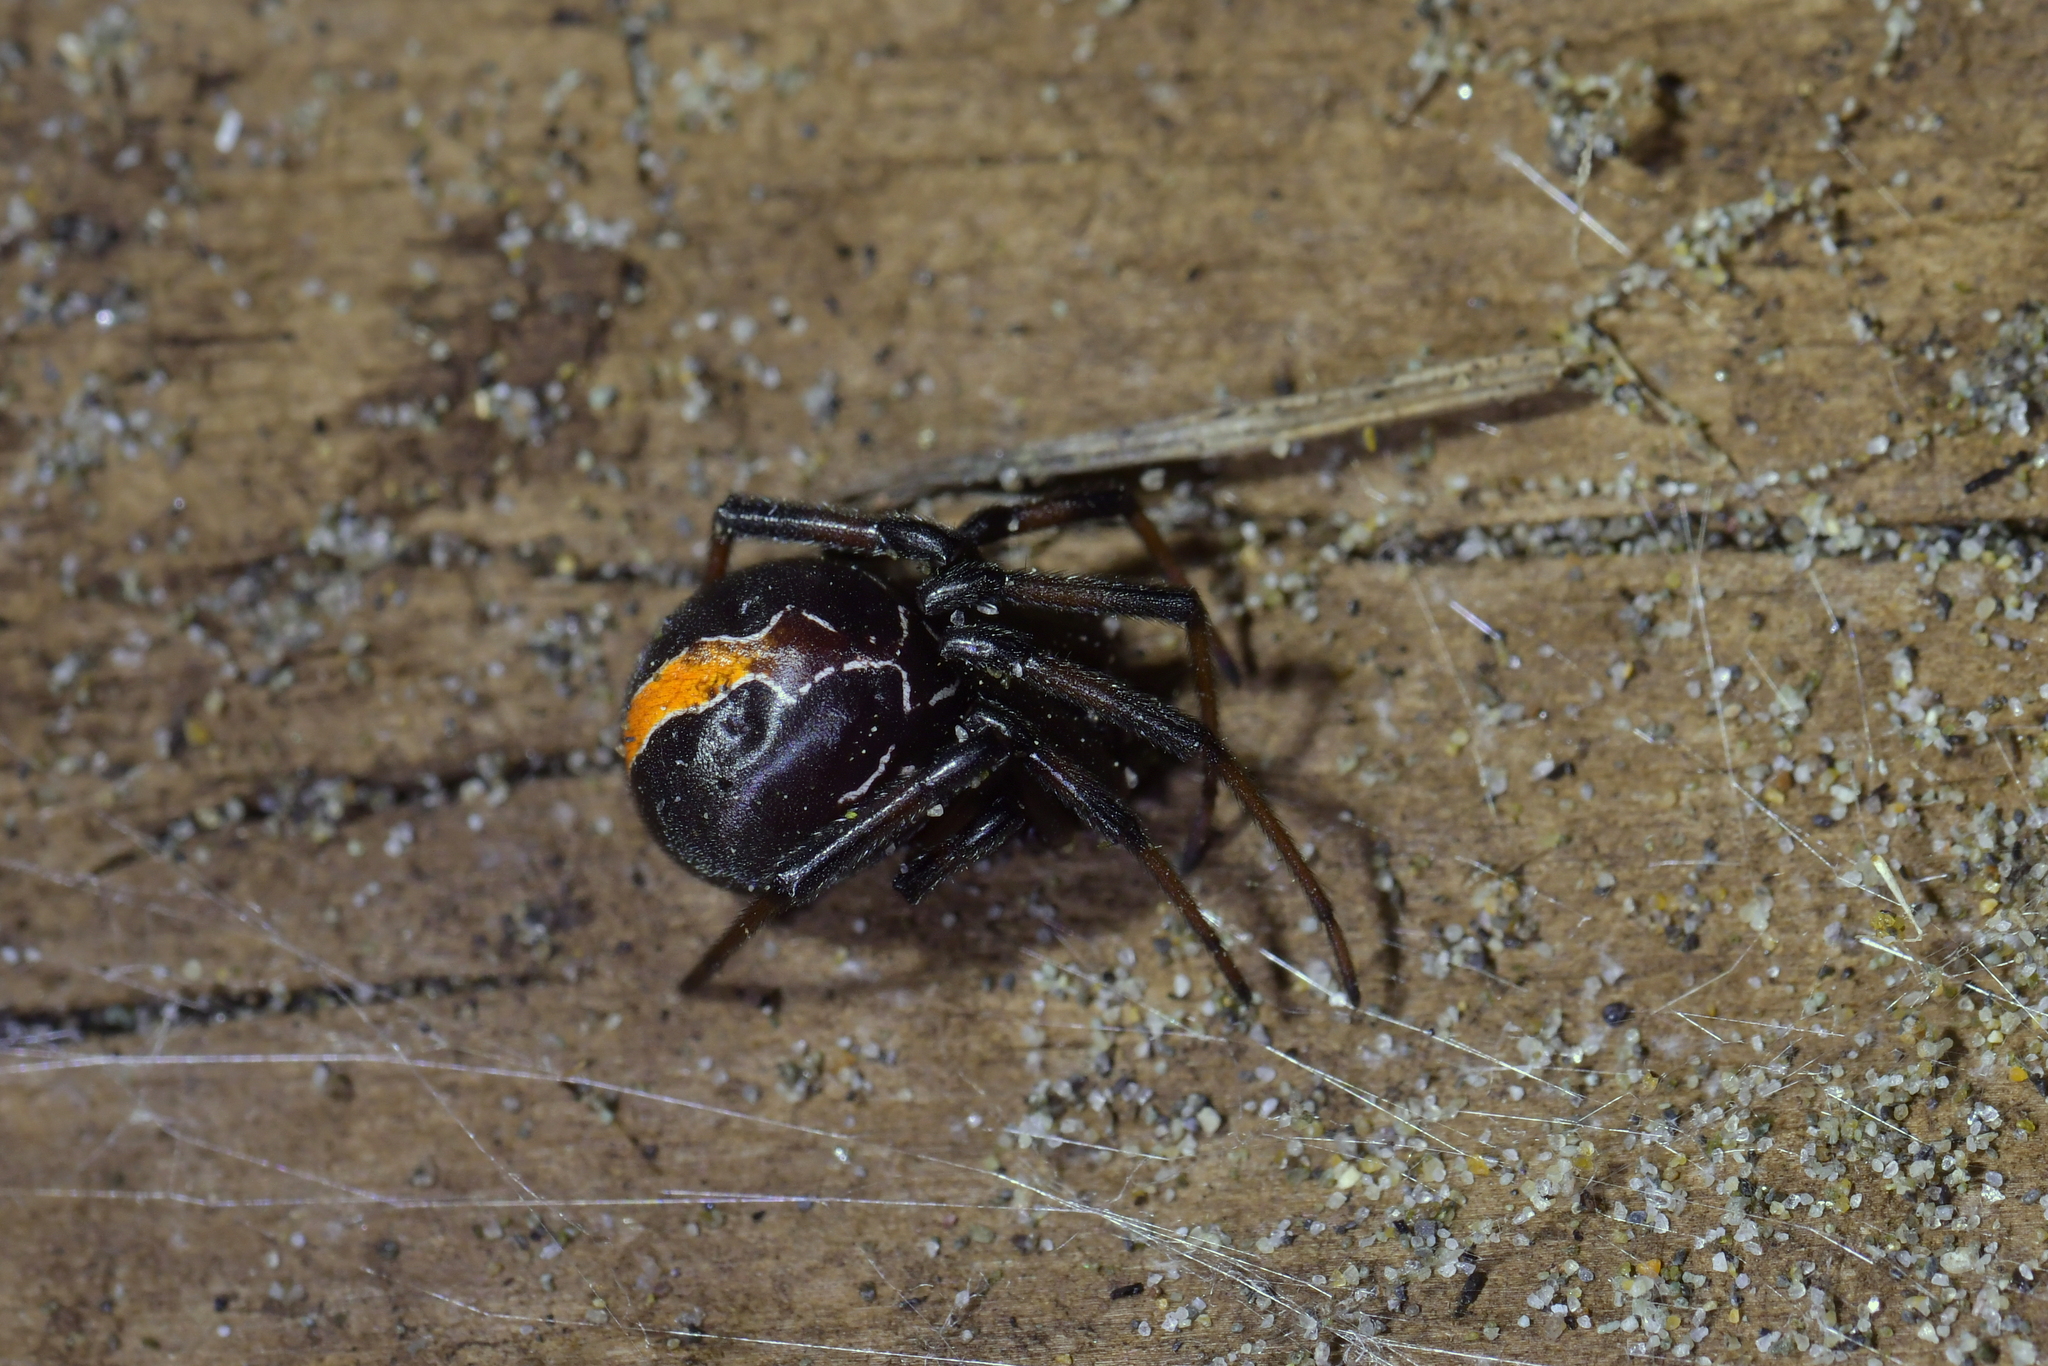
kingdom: Animalia
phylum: Arthropoda
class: Arachnida
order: Araneae
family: Theridiidae
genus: Latrodectus
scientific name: Latrodectus katipo
